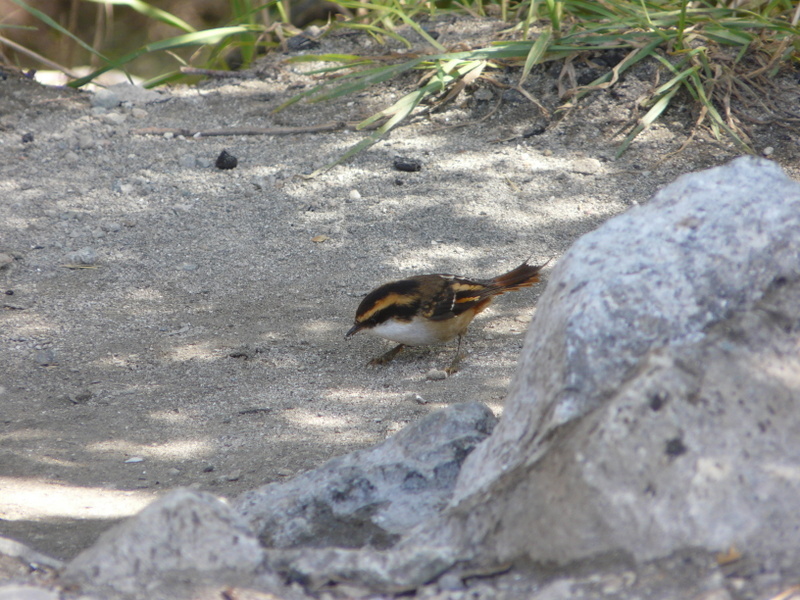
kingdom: Animalia
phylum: Chordata
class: Aves
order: Passeriformes
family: Furnariidae
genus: Aphrastura
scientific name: Aphrastura spinicauda
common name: Thorn-tailed rayadito
